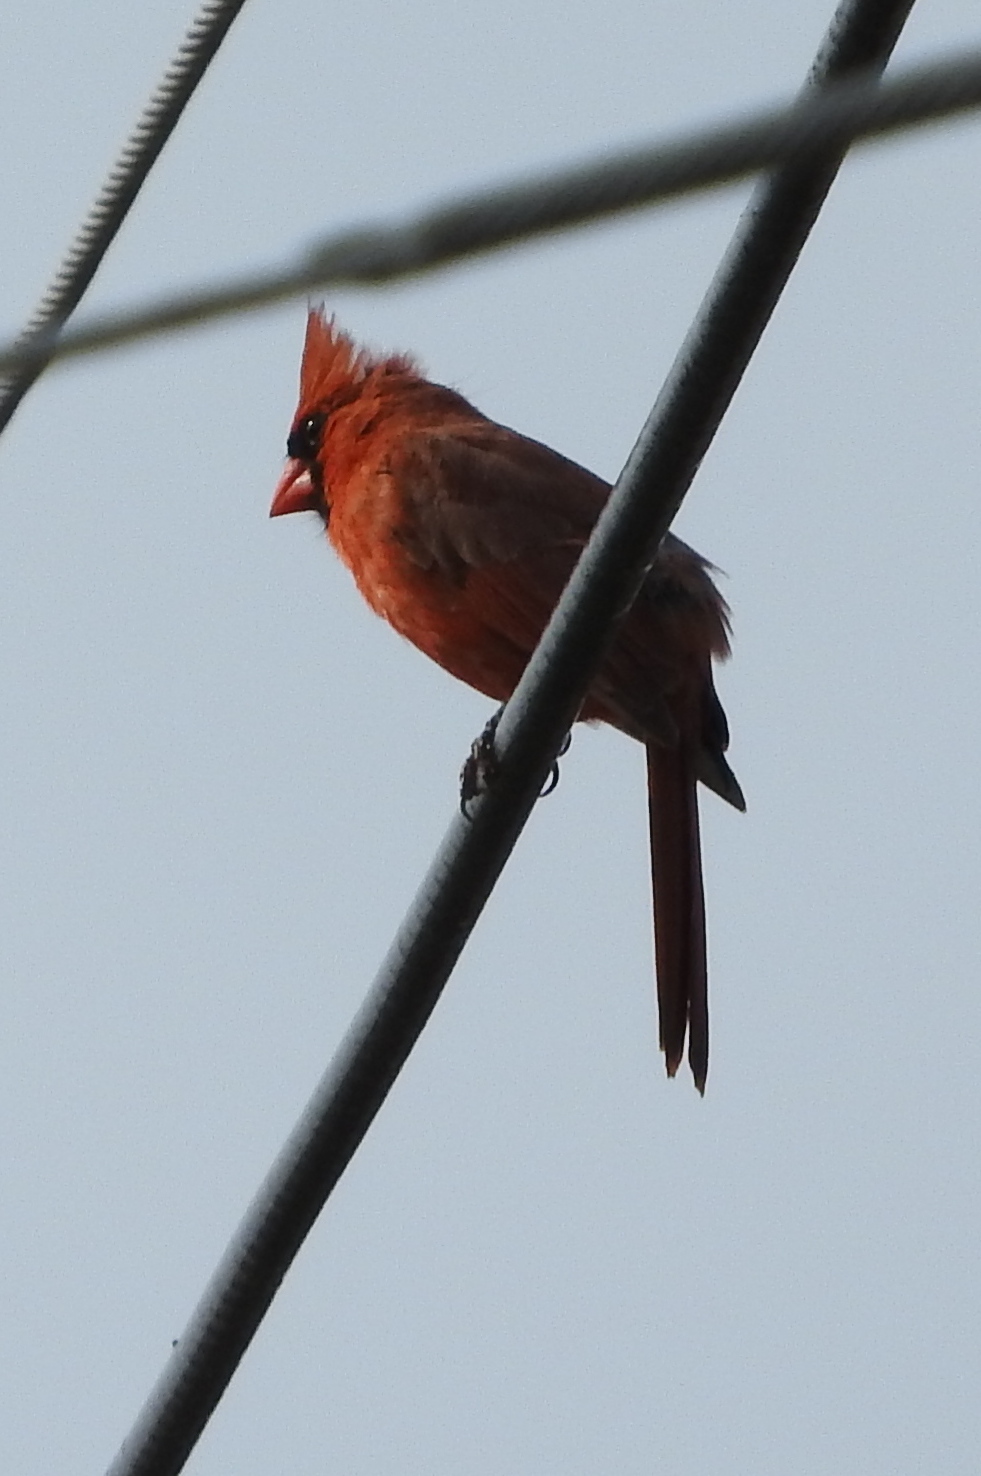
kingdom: Animalia
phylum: Chordata
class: Aves
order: Passeriformes
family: Cardinalidae
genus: Cardinalis
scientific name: Cardinalis cardinalis
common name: Northern cardinal
